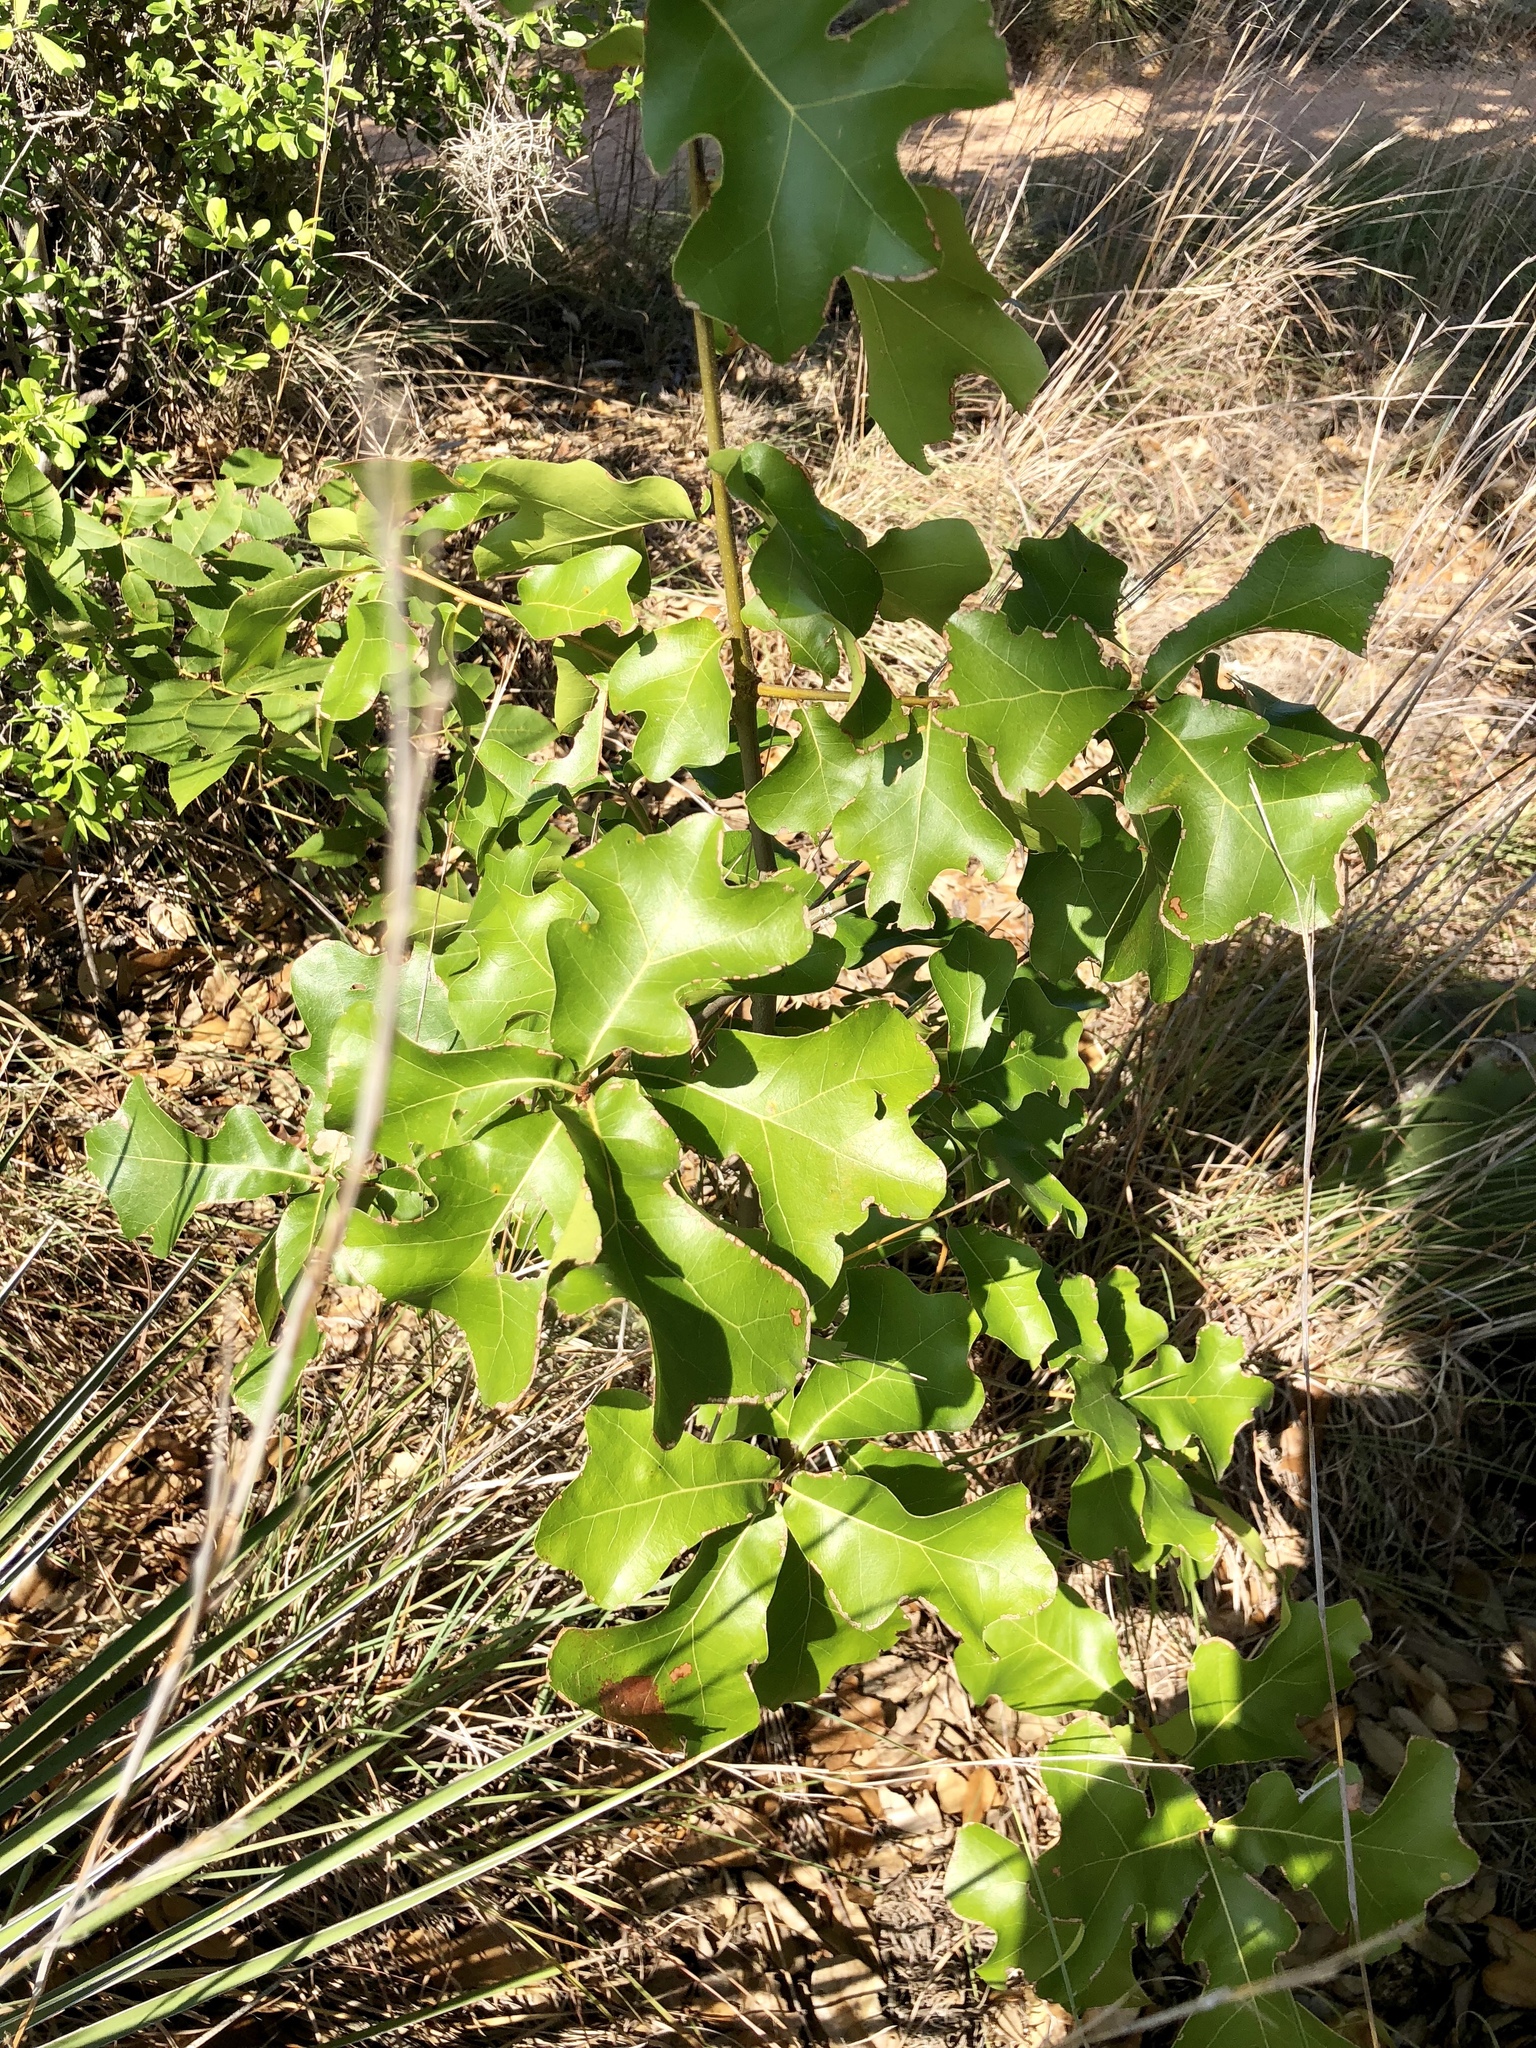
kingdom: Plantae
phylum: Tracheophyta
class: Magnoliopsida
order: Fagales
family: Fagaceae
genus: Quercus
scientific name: Quercus marilandica
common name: Blackjack oak
